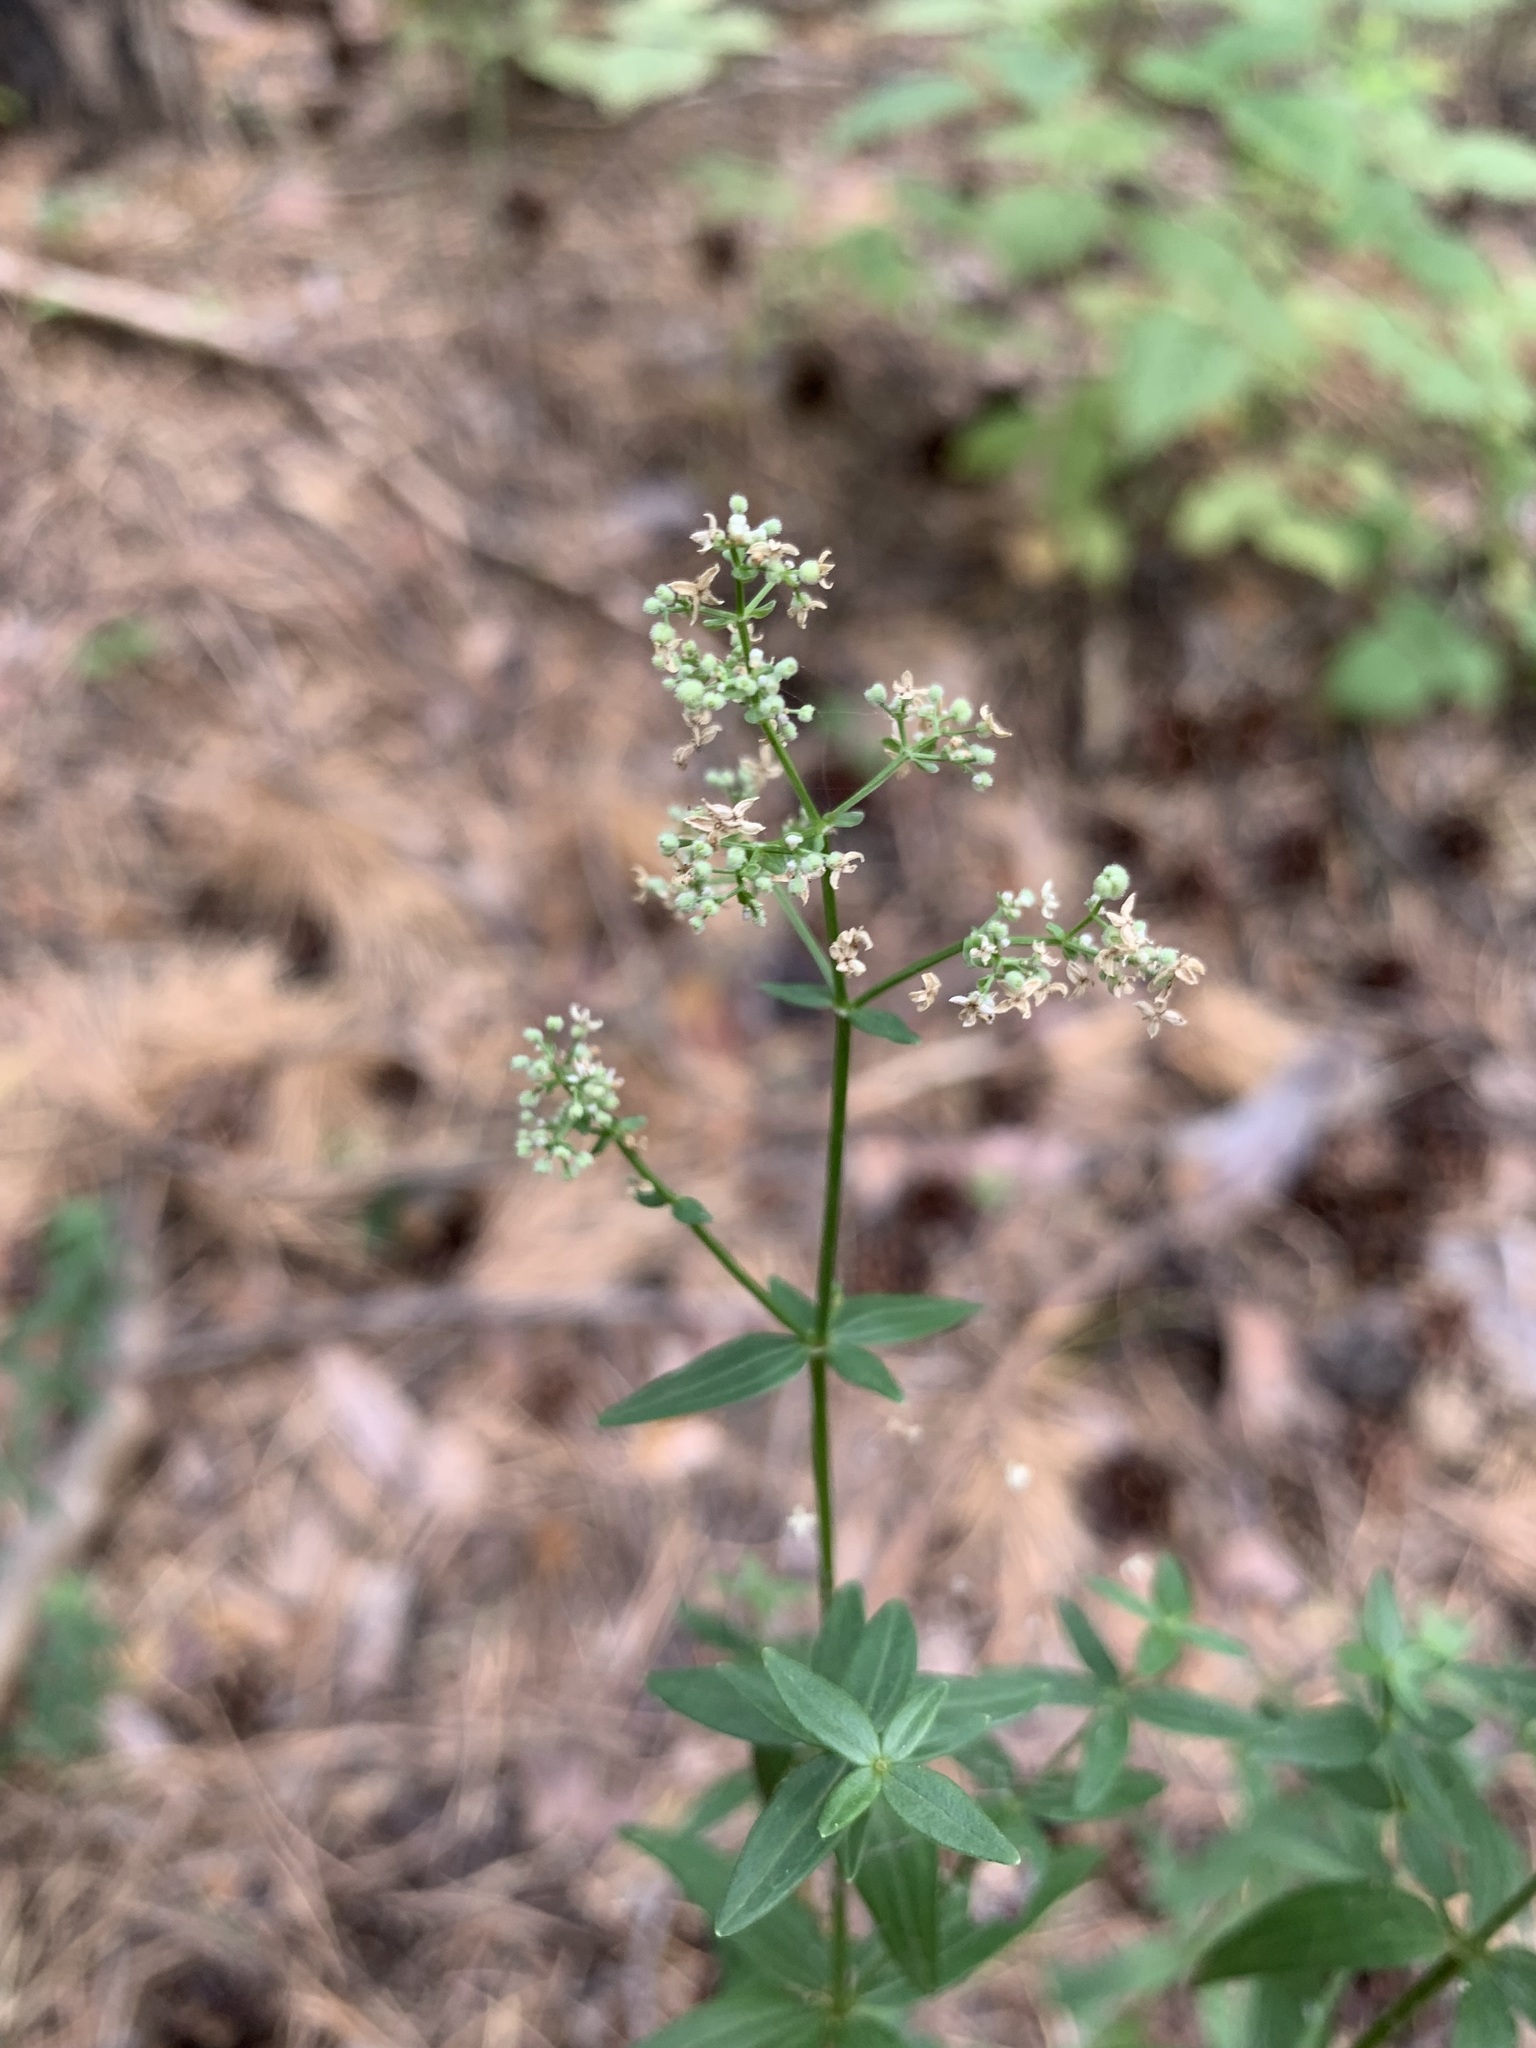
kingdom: Plantae
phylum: Tracheophyta
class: Magnoliopsida
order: Gentianales
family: Rubiaceae
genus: Galium
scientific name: Galium boreale
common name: Northern bedstraw
